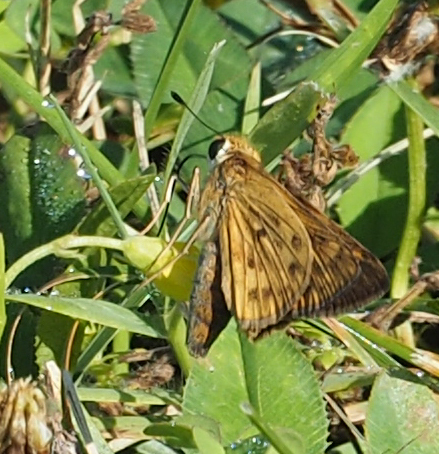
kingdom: Animalia
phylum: Arthropoda
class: Insecta
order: Lepidoptera
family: Hesperiidae
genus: Hylephila
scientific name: Hylephila phyleus
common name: Fiery skipper
